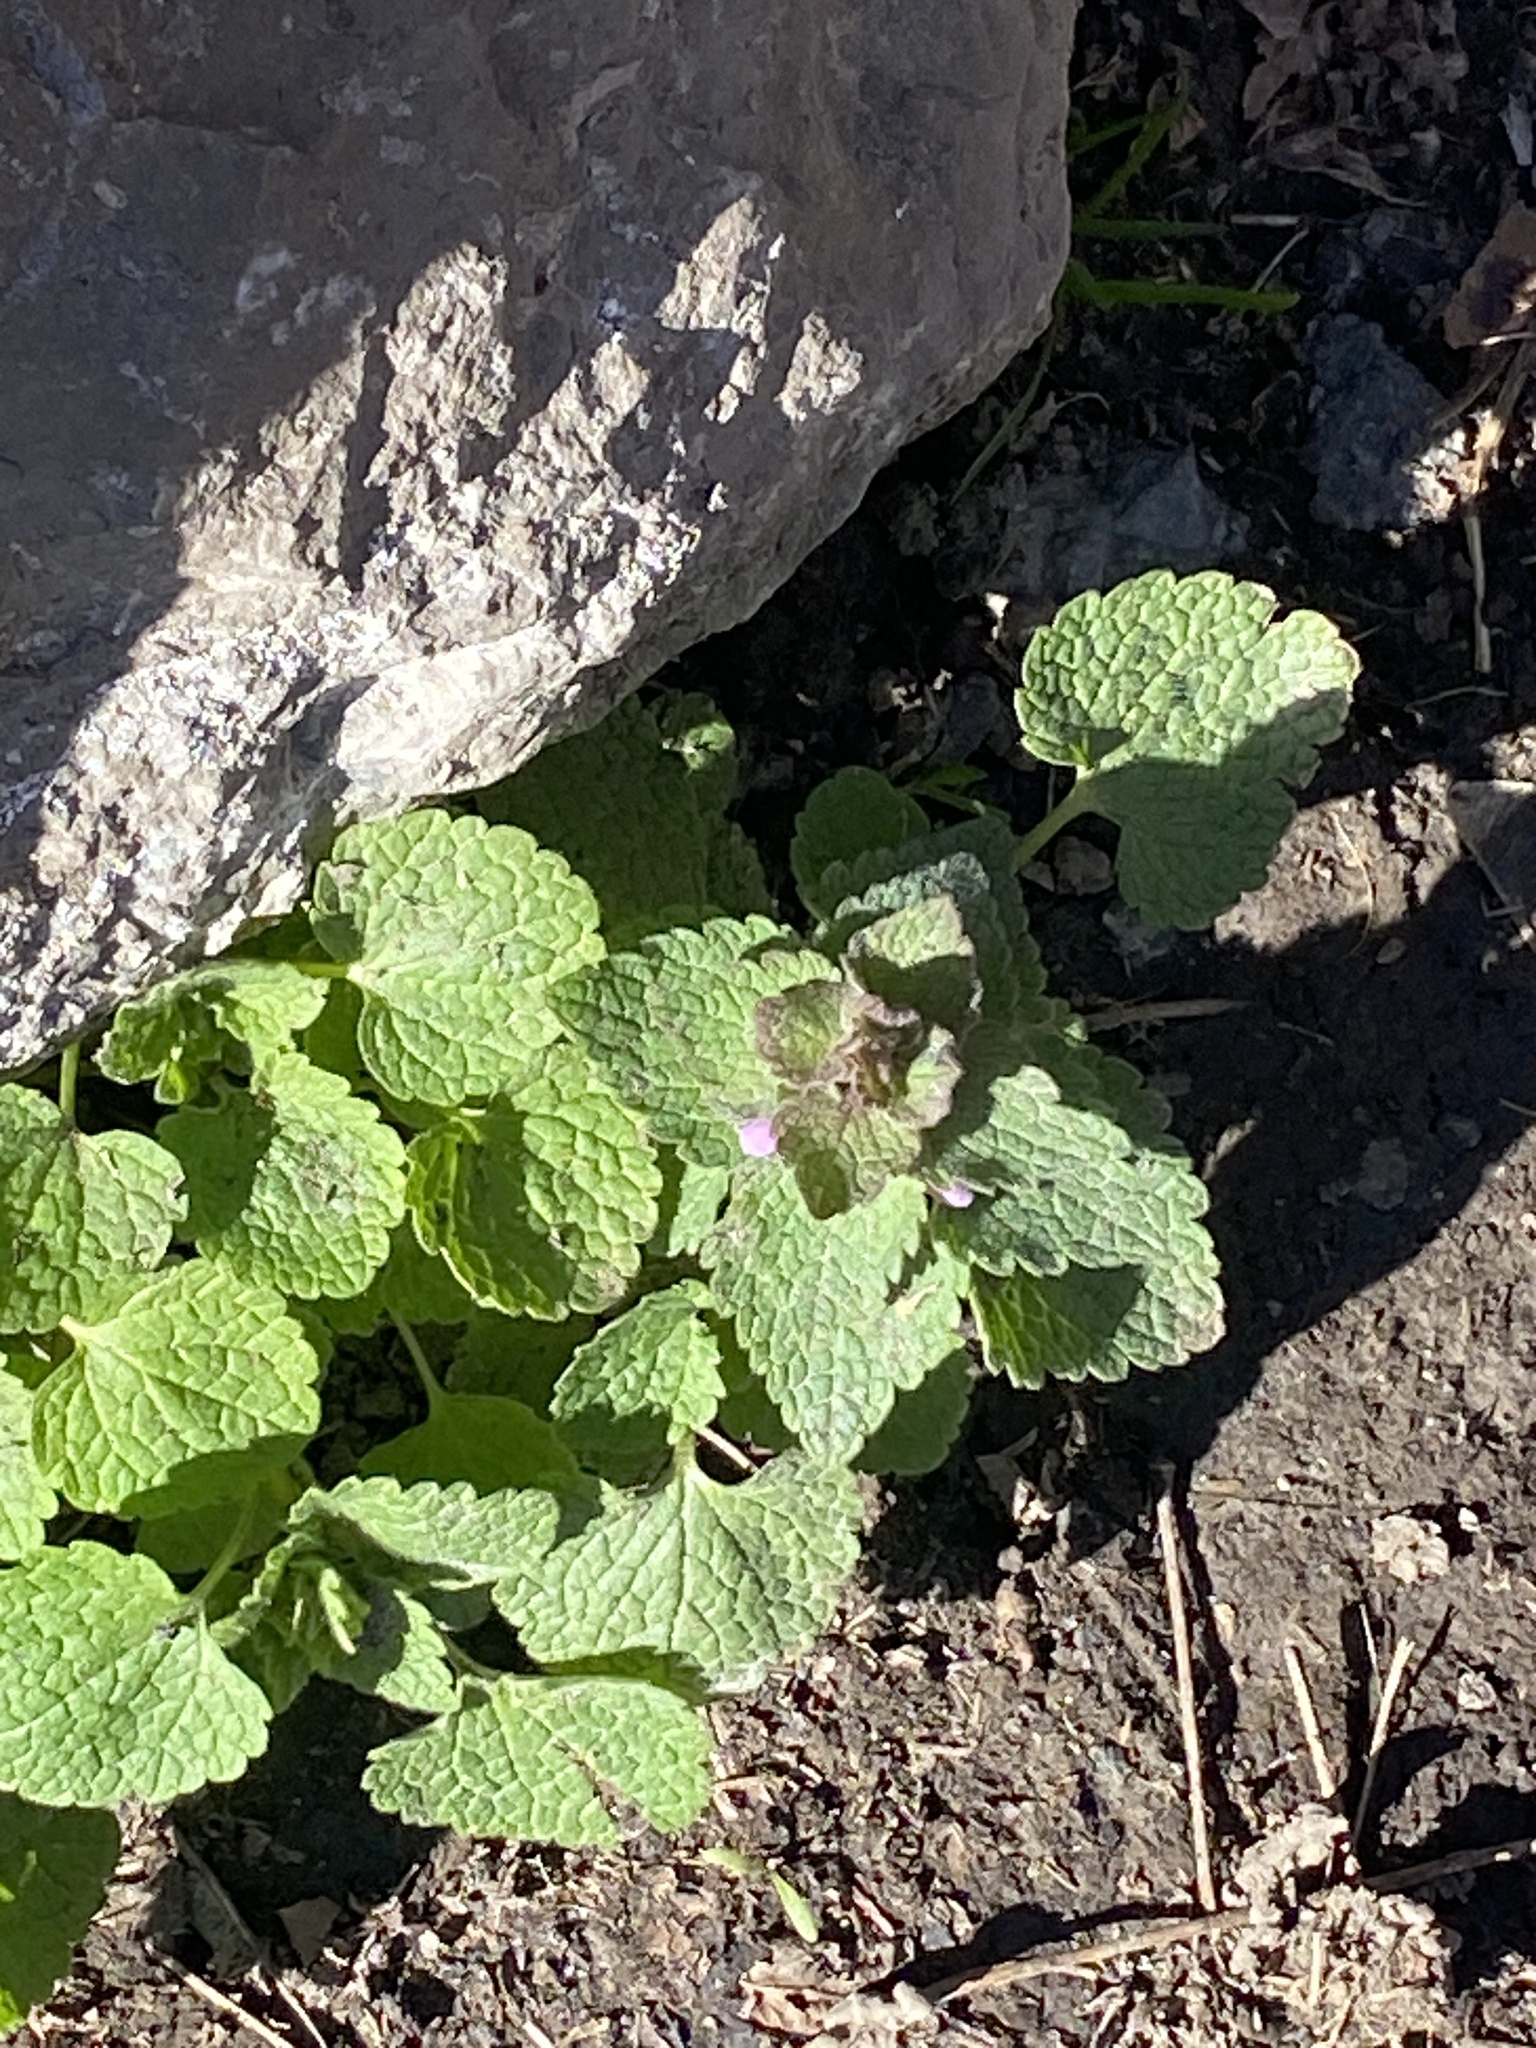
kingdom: Plantae
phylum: Tracheophyta
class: Magnoliopsida
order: Lamiales
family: Lamiaceae
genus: Lamium
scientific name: Lamium purpureum
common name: Red dead-nettle
